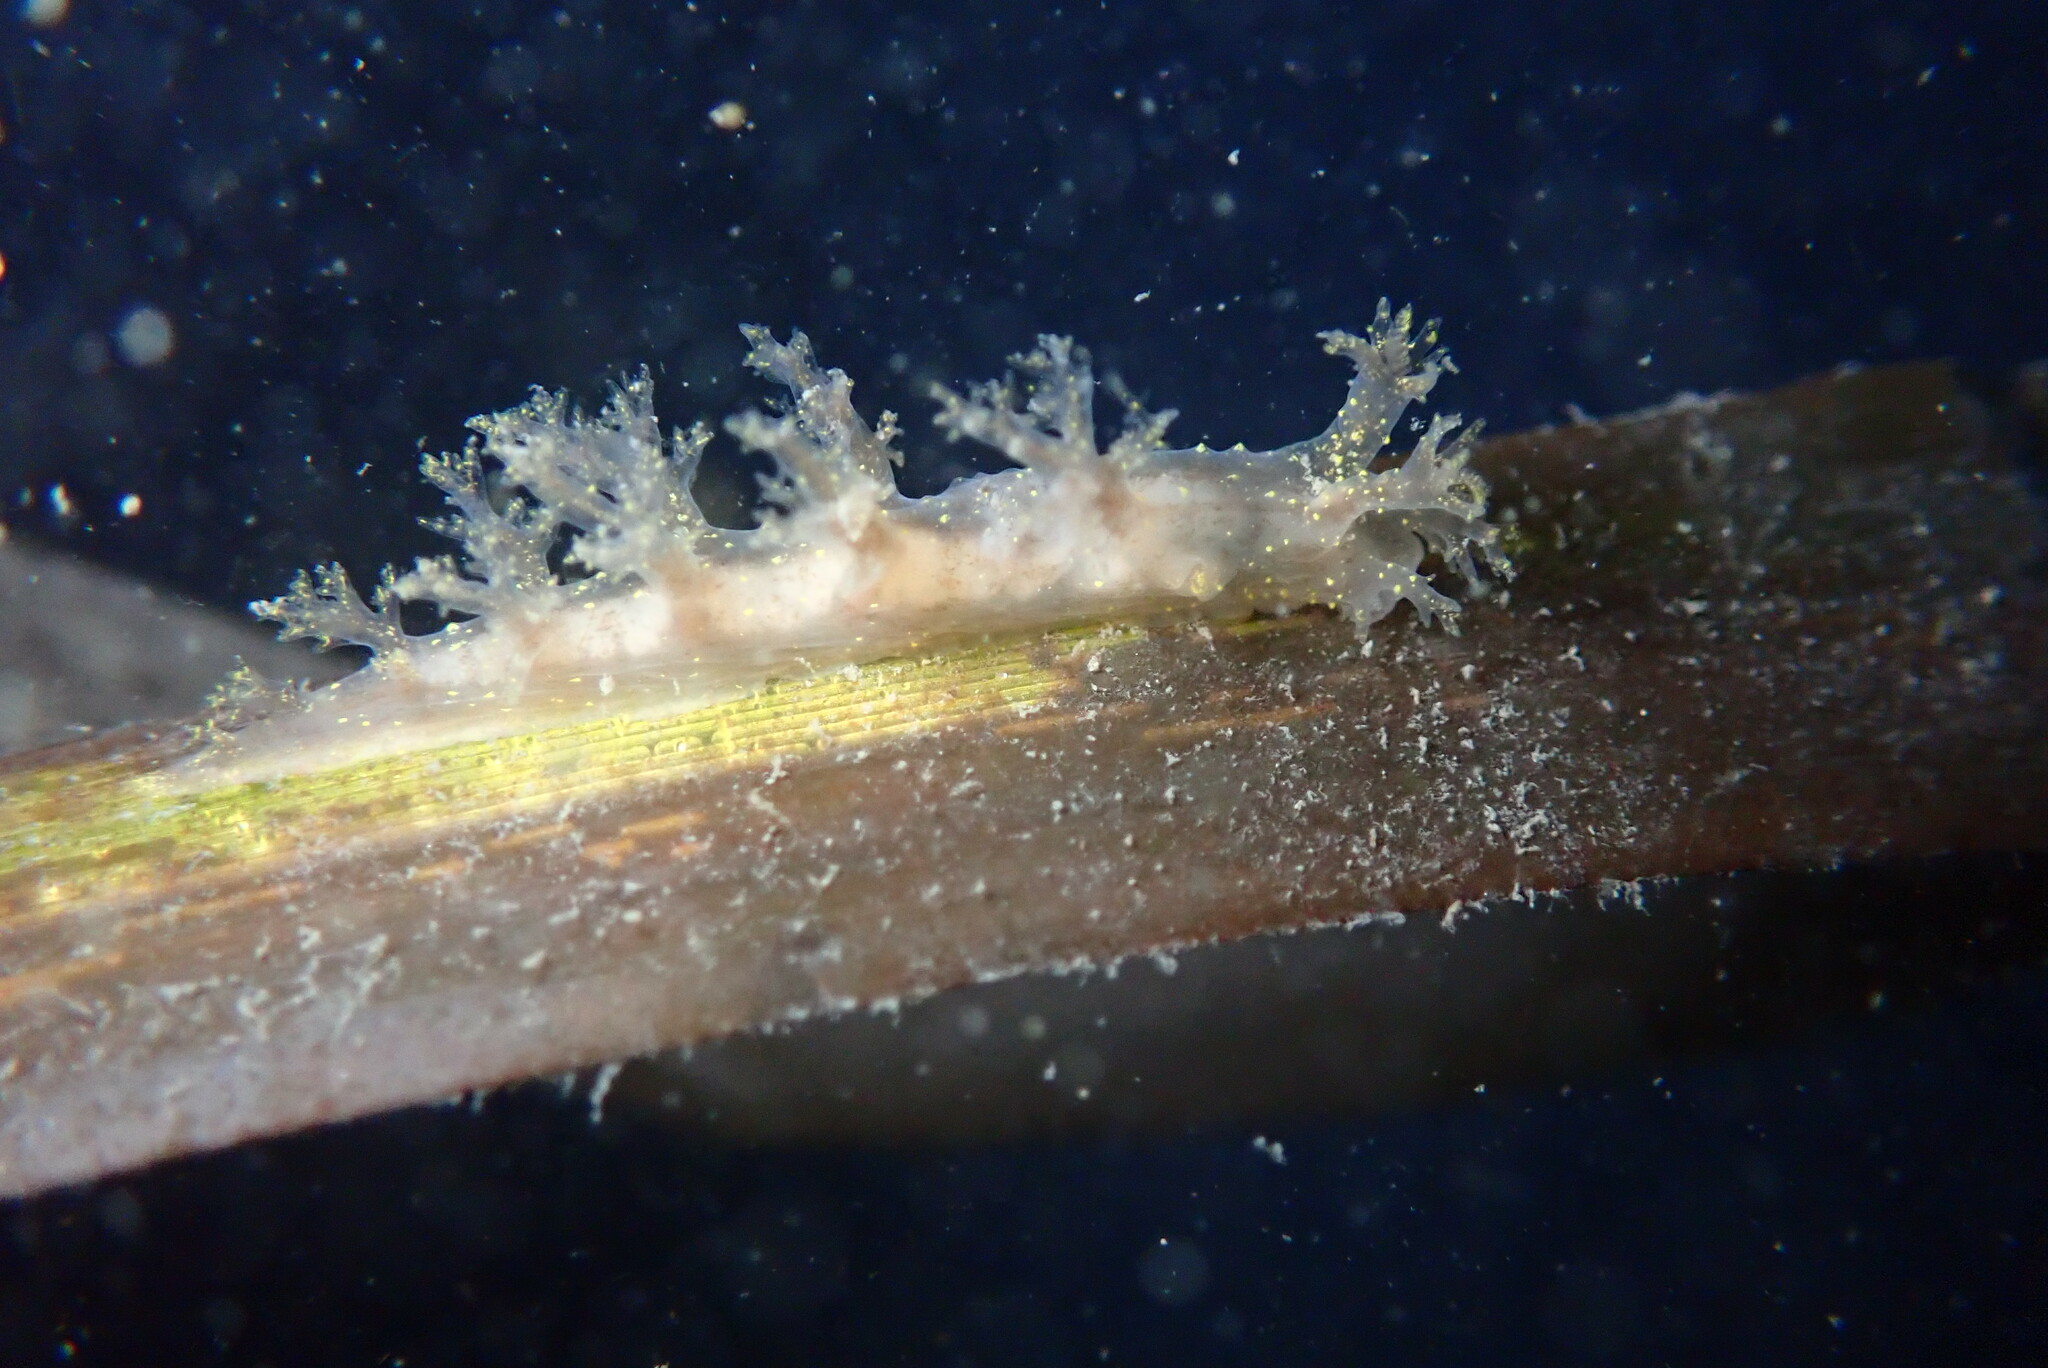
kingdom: Animalia
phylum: Mollusca
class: Gastropoda
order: Nudibranchia
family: Dendronotidae
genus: Dendronotus
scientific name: Dendronotus venustus
